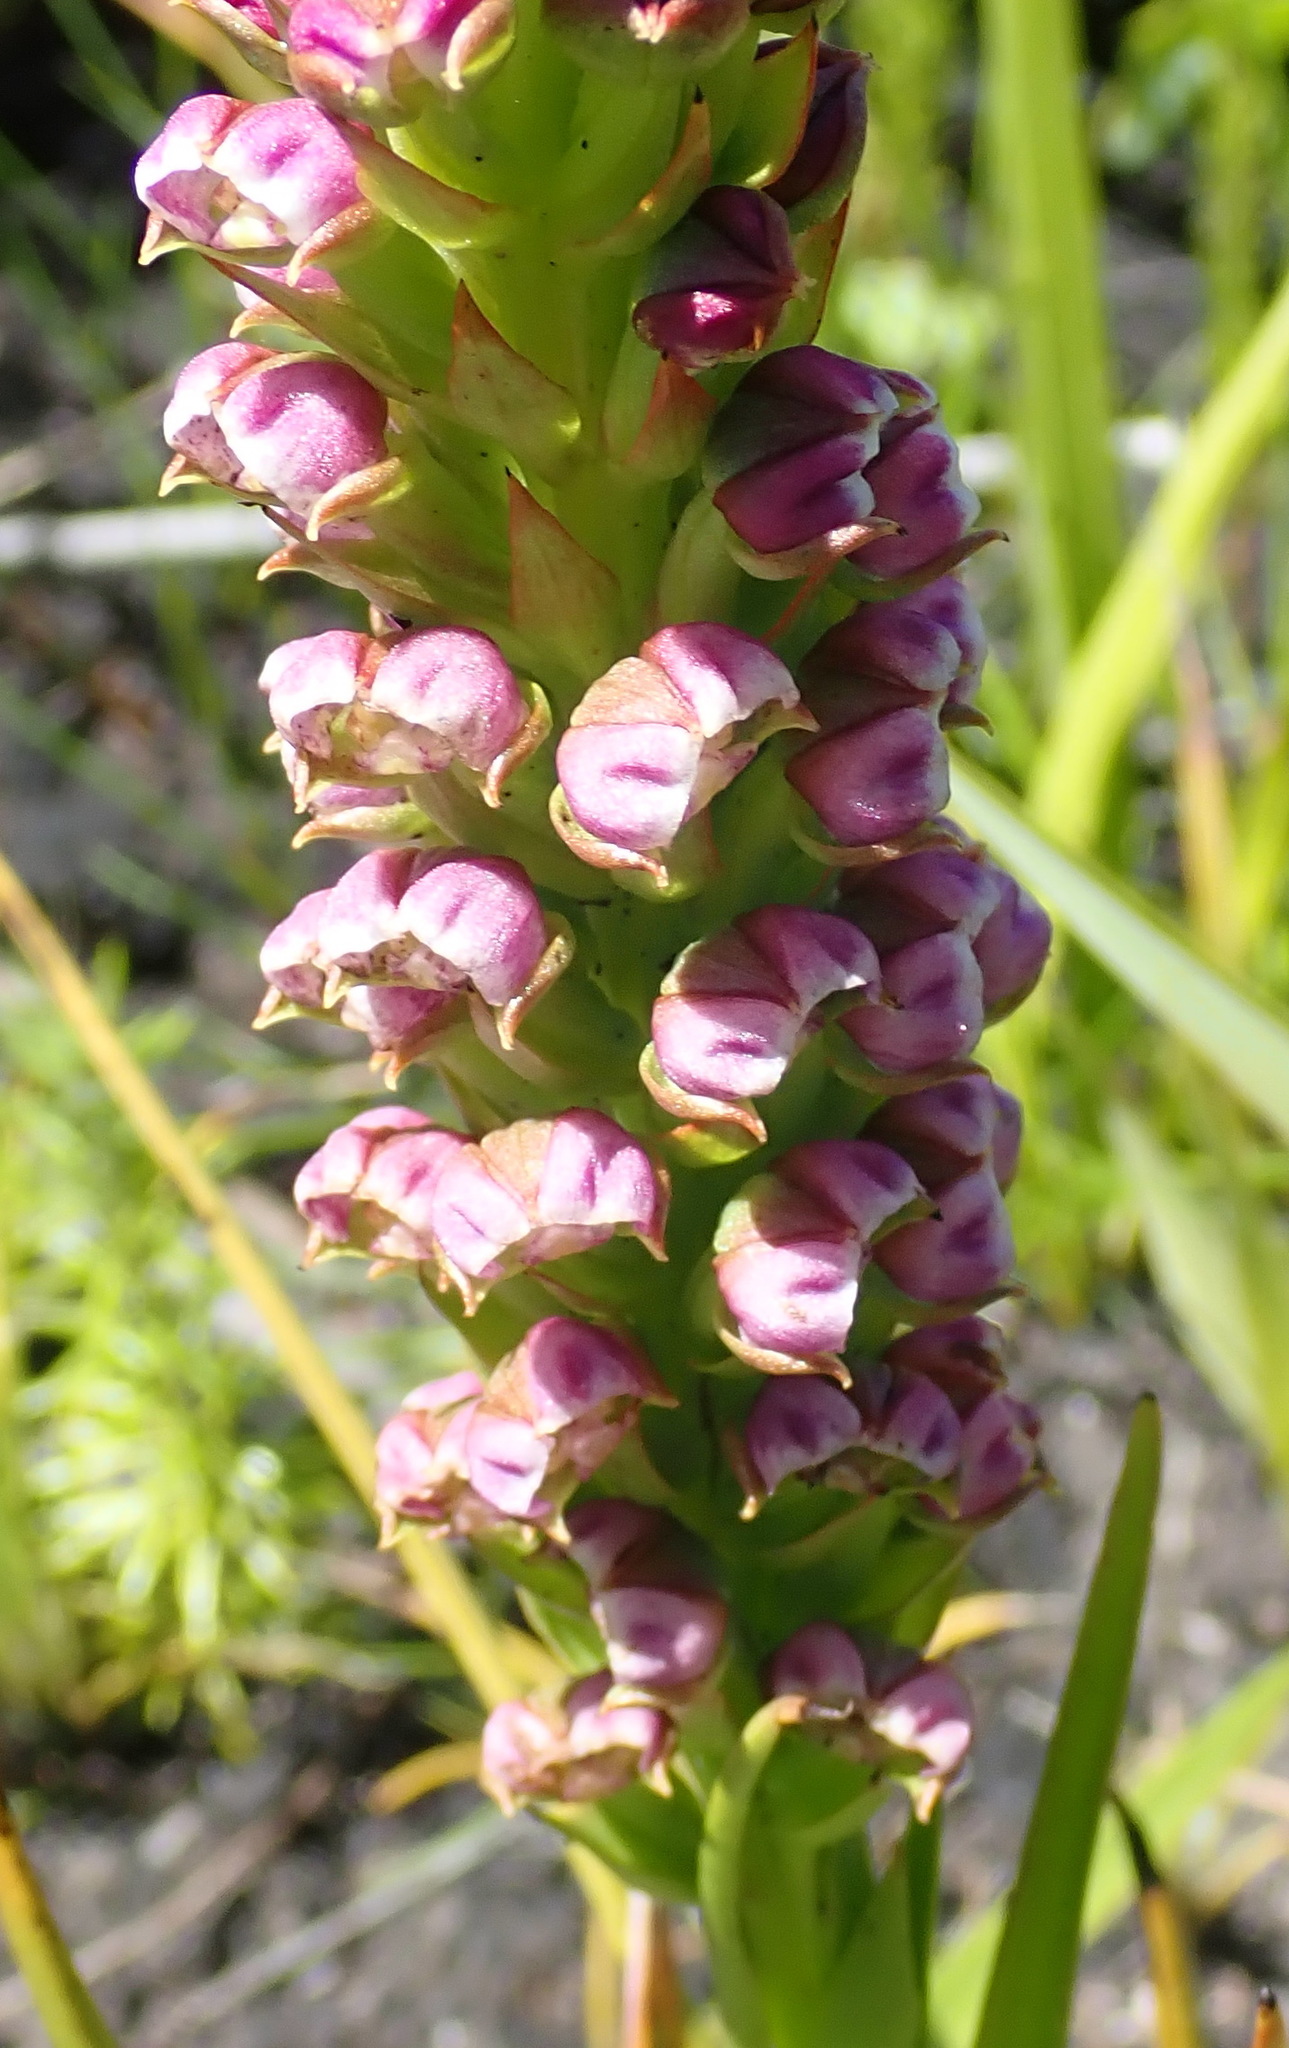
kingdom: Plantae
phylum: Tracheophyta
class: Liliopsida
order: Asparagales
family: Orchidaceae
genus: Evotella
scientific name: Evotella carnosa
